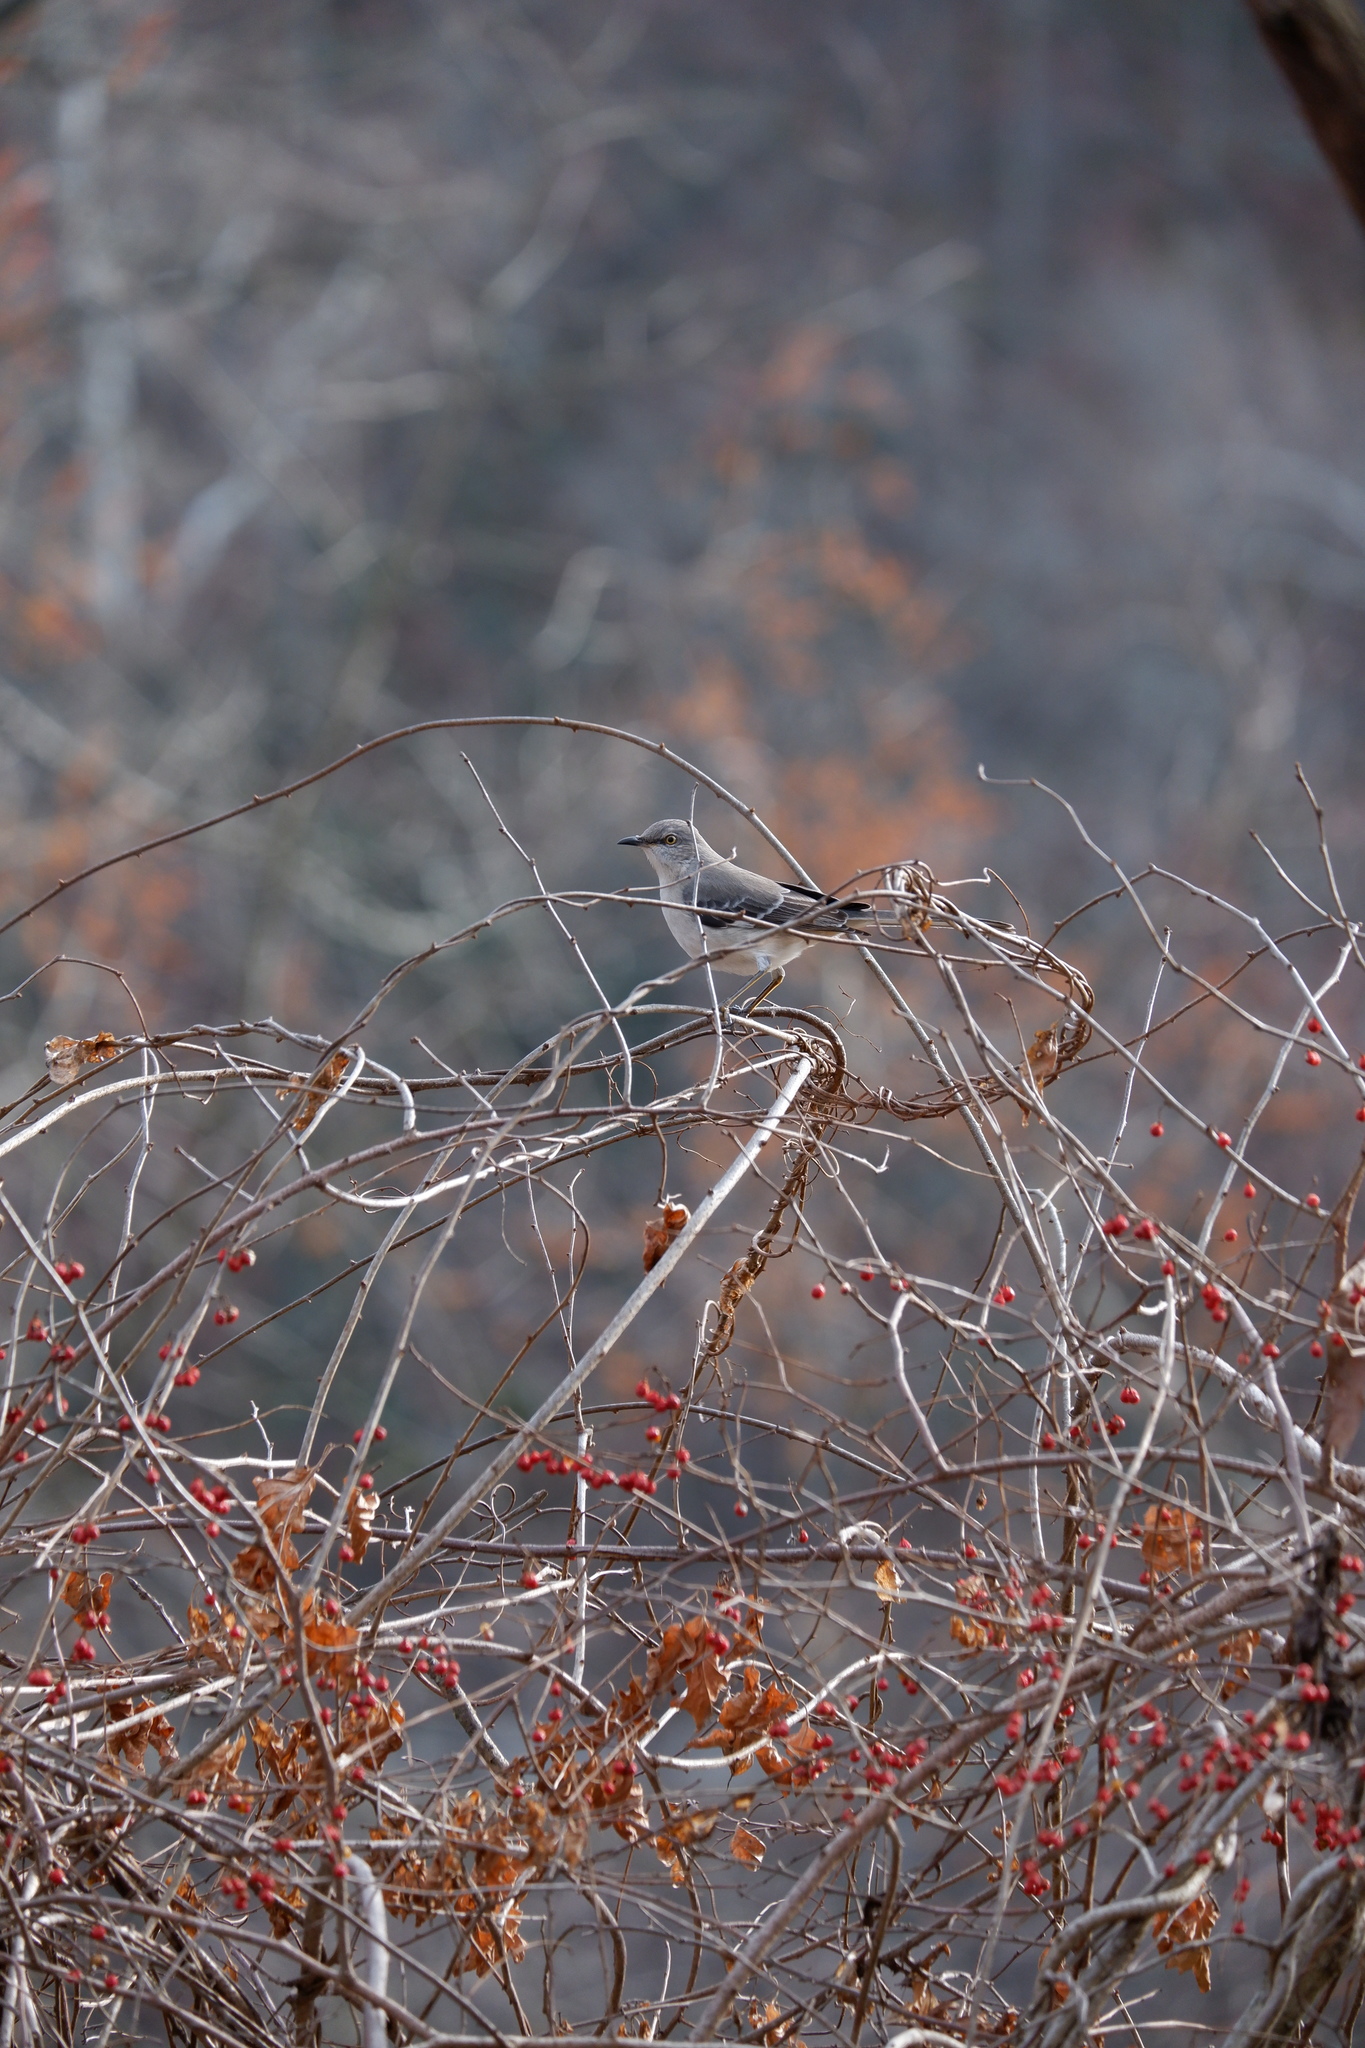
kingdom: Animalia
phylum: Chordata
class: Aves
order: Passeriformes
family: Mimidae
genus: Mimus
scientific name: Mimus polyglottos
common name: Northern mockingbird
